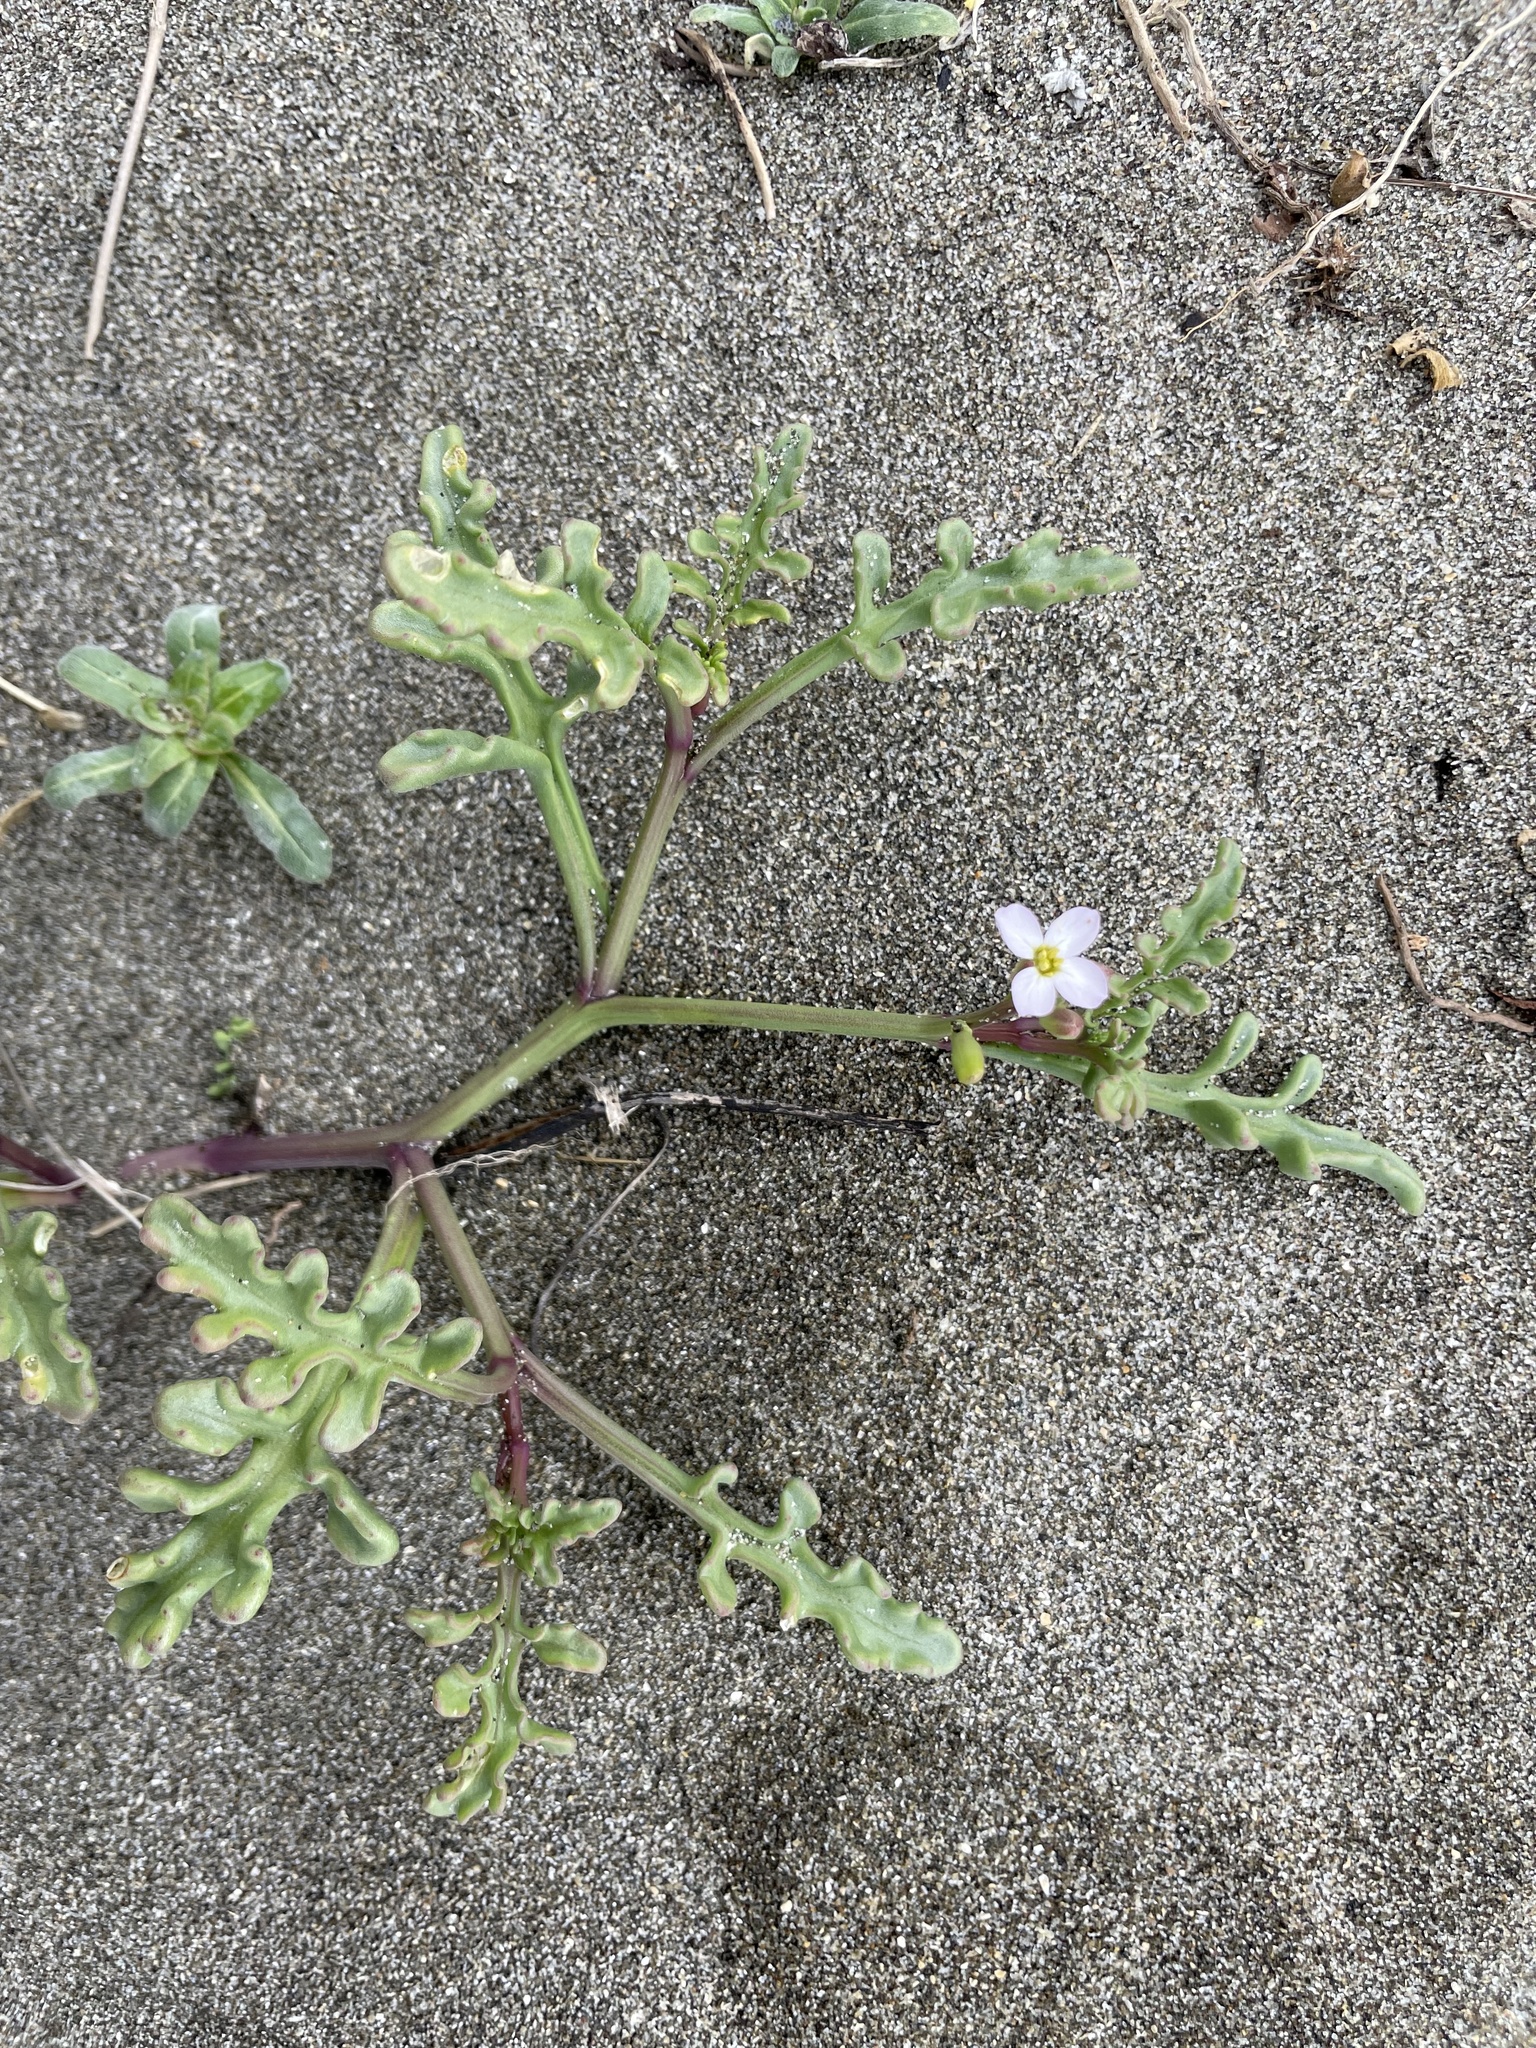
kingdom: Plantae
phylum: Tracheophyta
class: Magnoliopsida
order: Brassicales
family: Brassicaceae
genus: Cakile
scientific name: Cakile maritima
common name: Sea rocket
